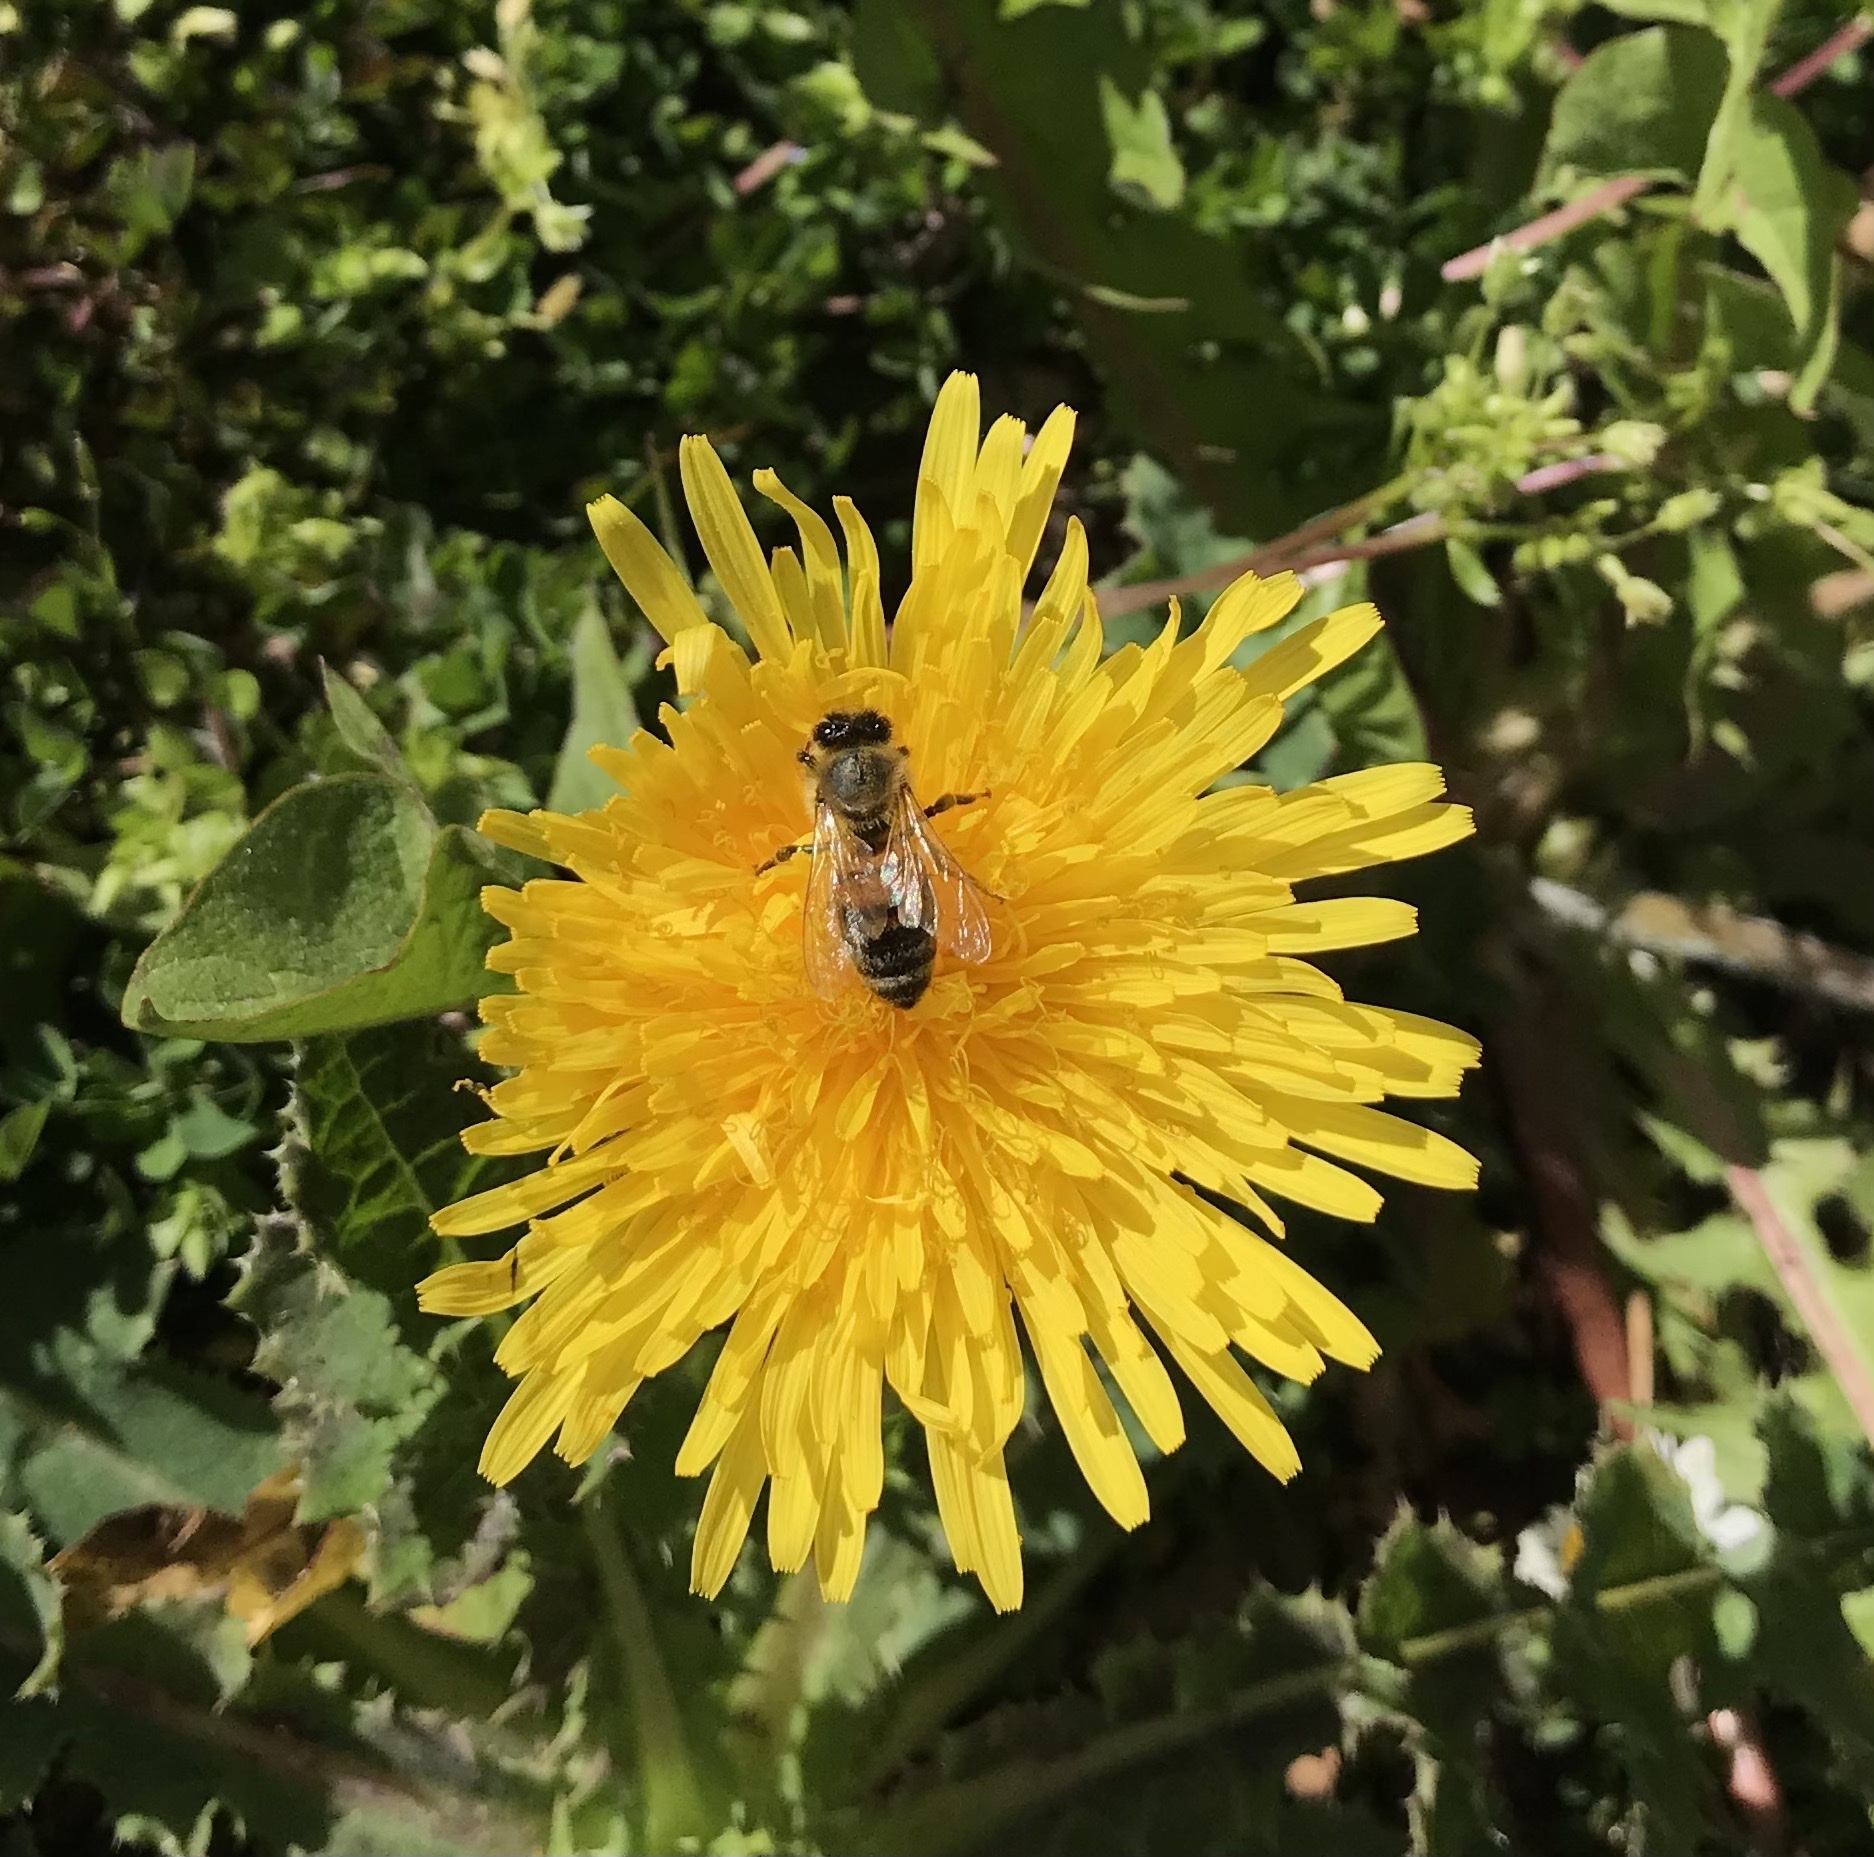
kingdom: Animalia
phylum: Arthropoda
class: Insecta
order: Hymenoptera
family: Apidae
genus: Apis
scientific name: Apis mellifera
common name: Honey bee
